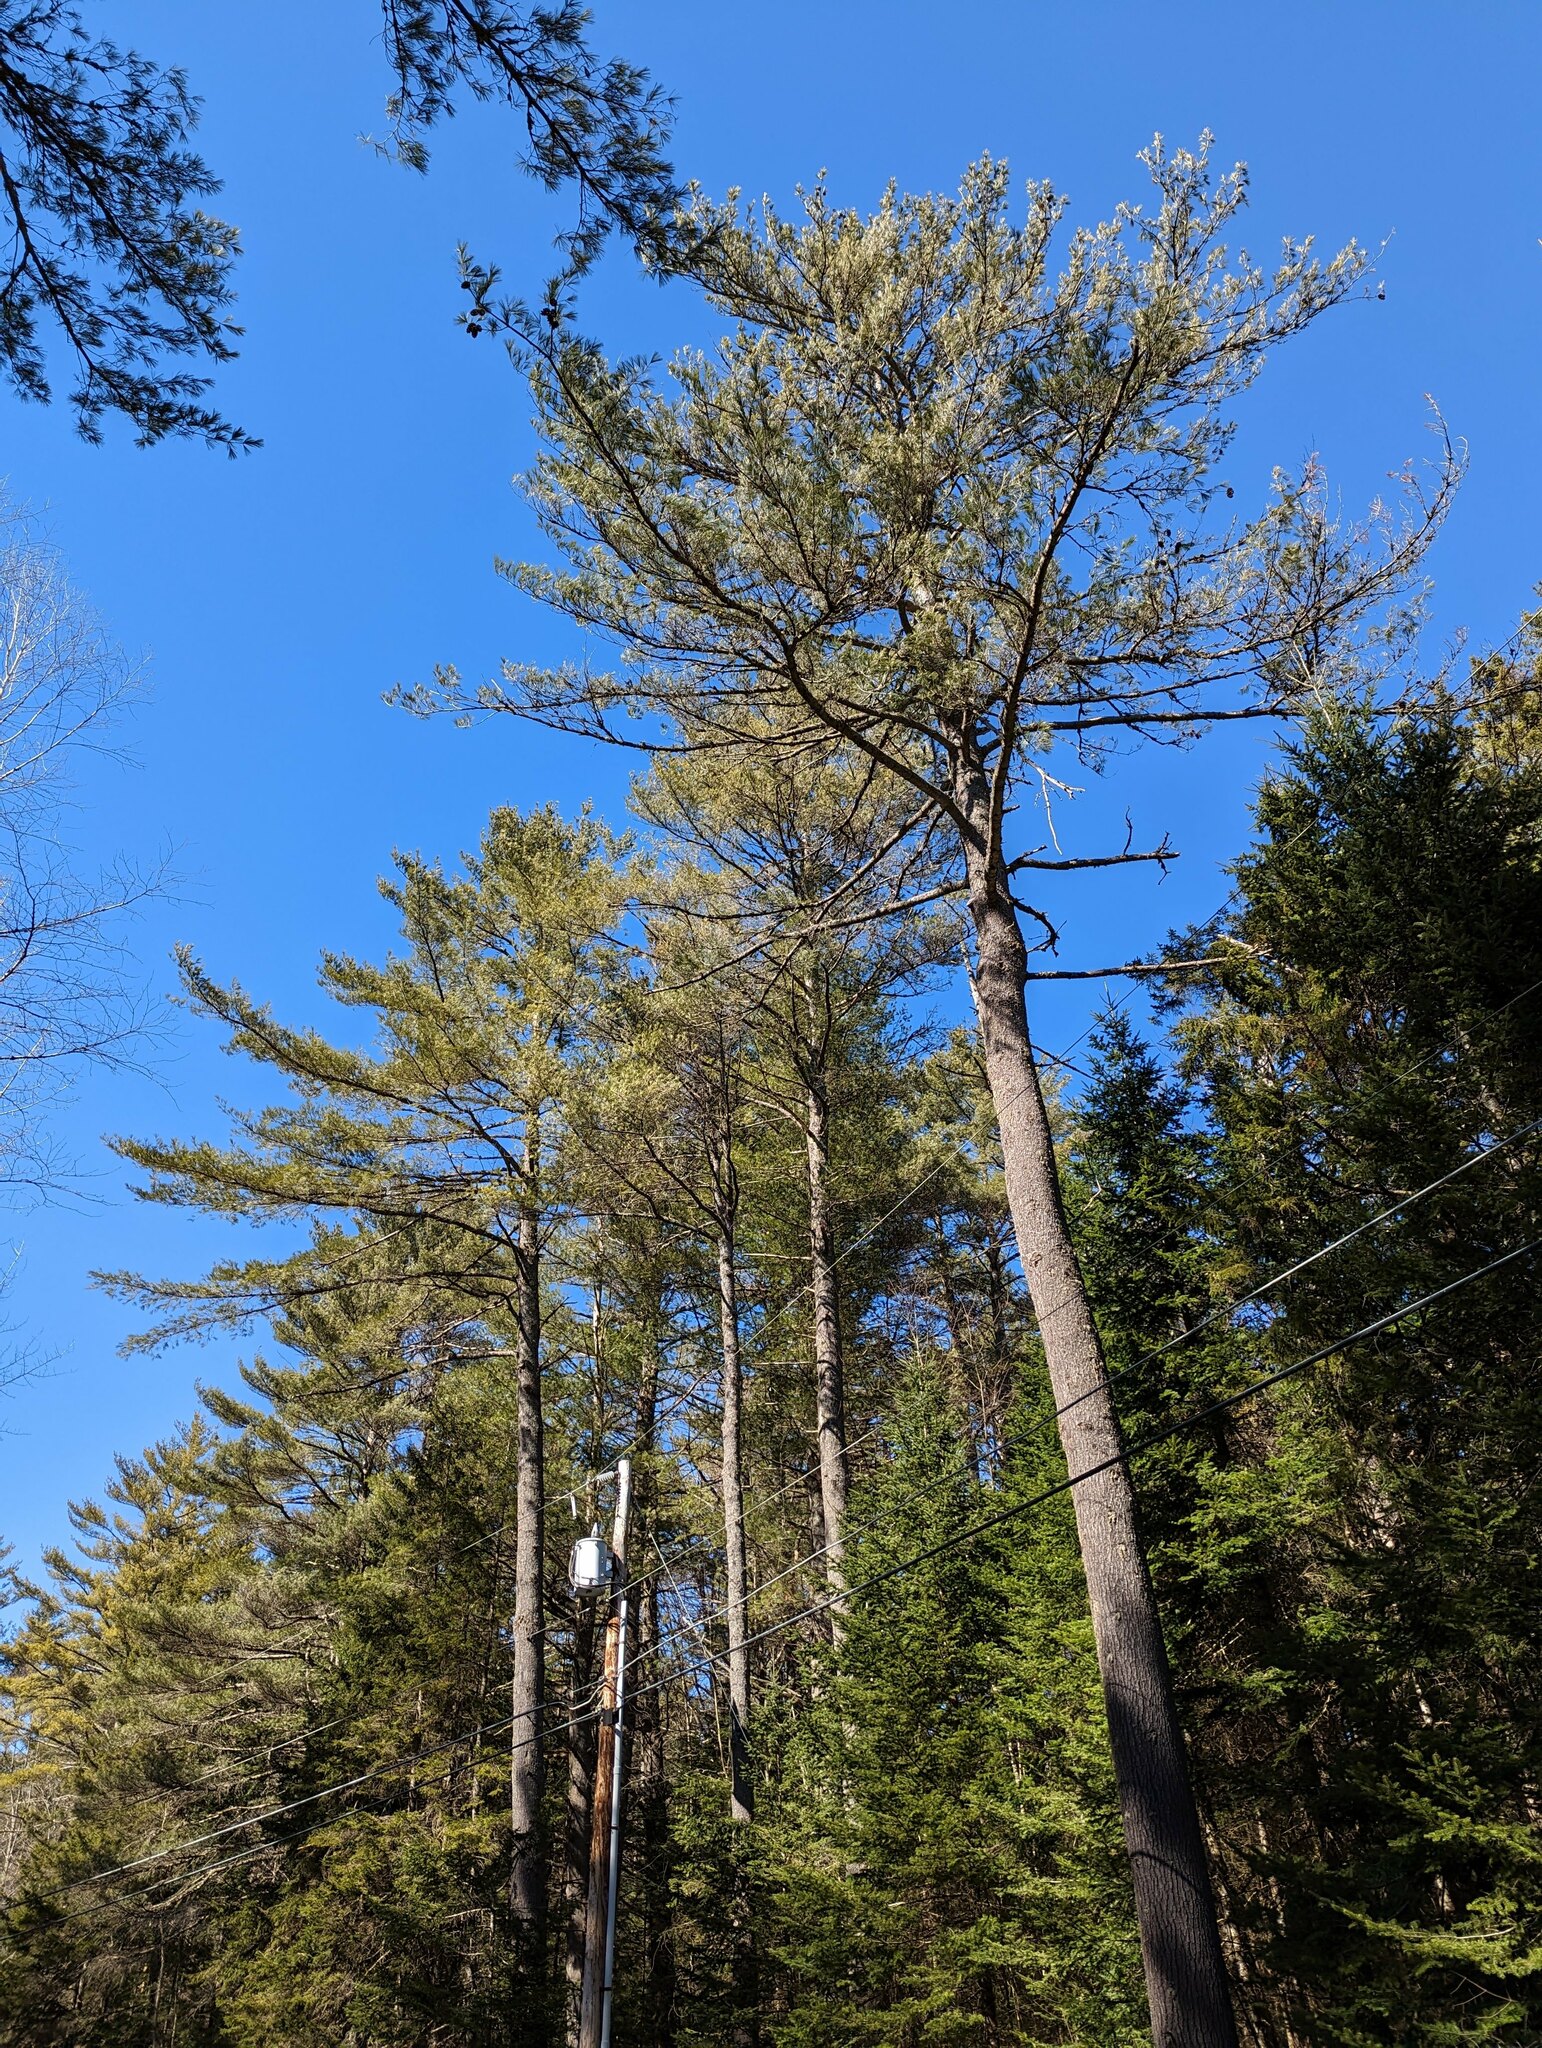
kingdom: Plantae
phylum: Tracheophyta
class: Pinopsida
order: Pinales
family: Pinaceae
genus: Pinus
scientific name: Pinus strobus
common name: Weymouth pine
